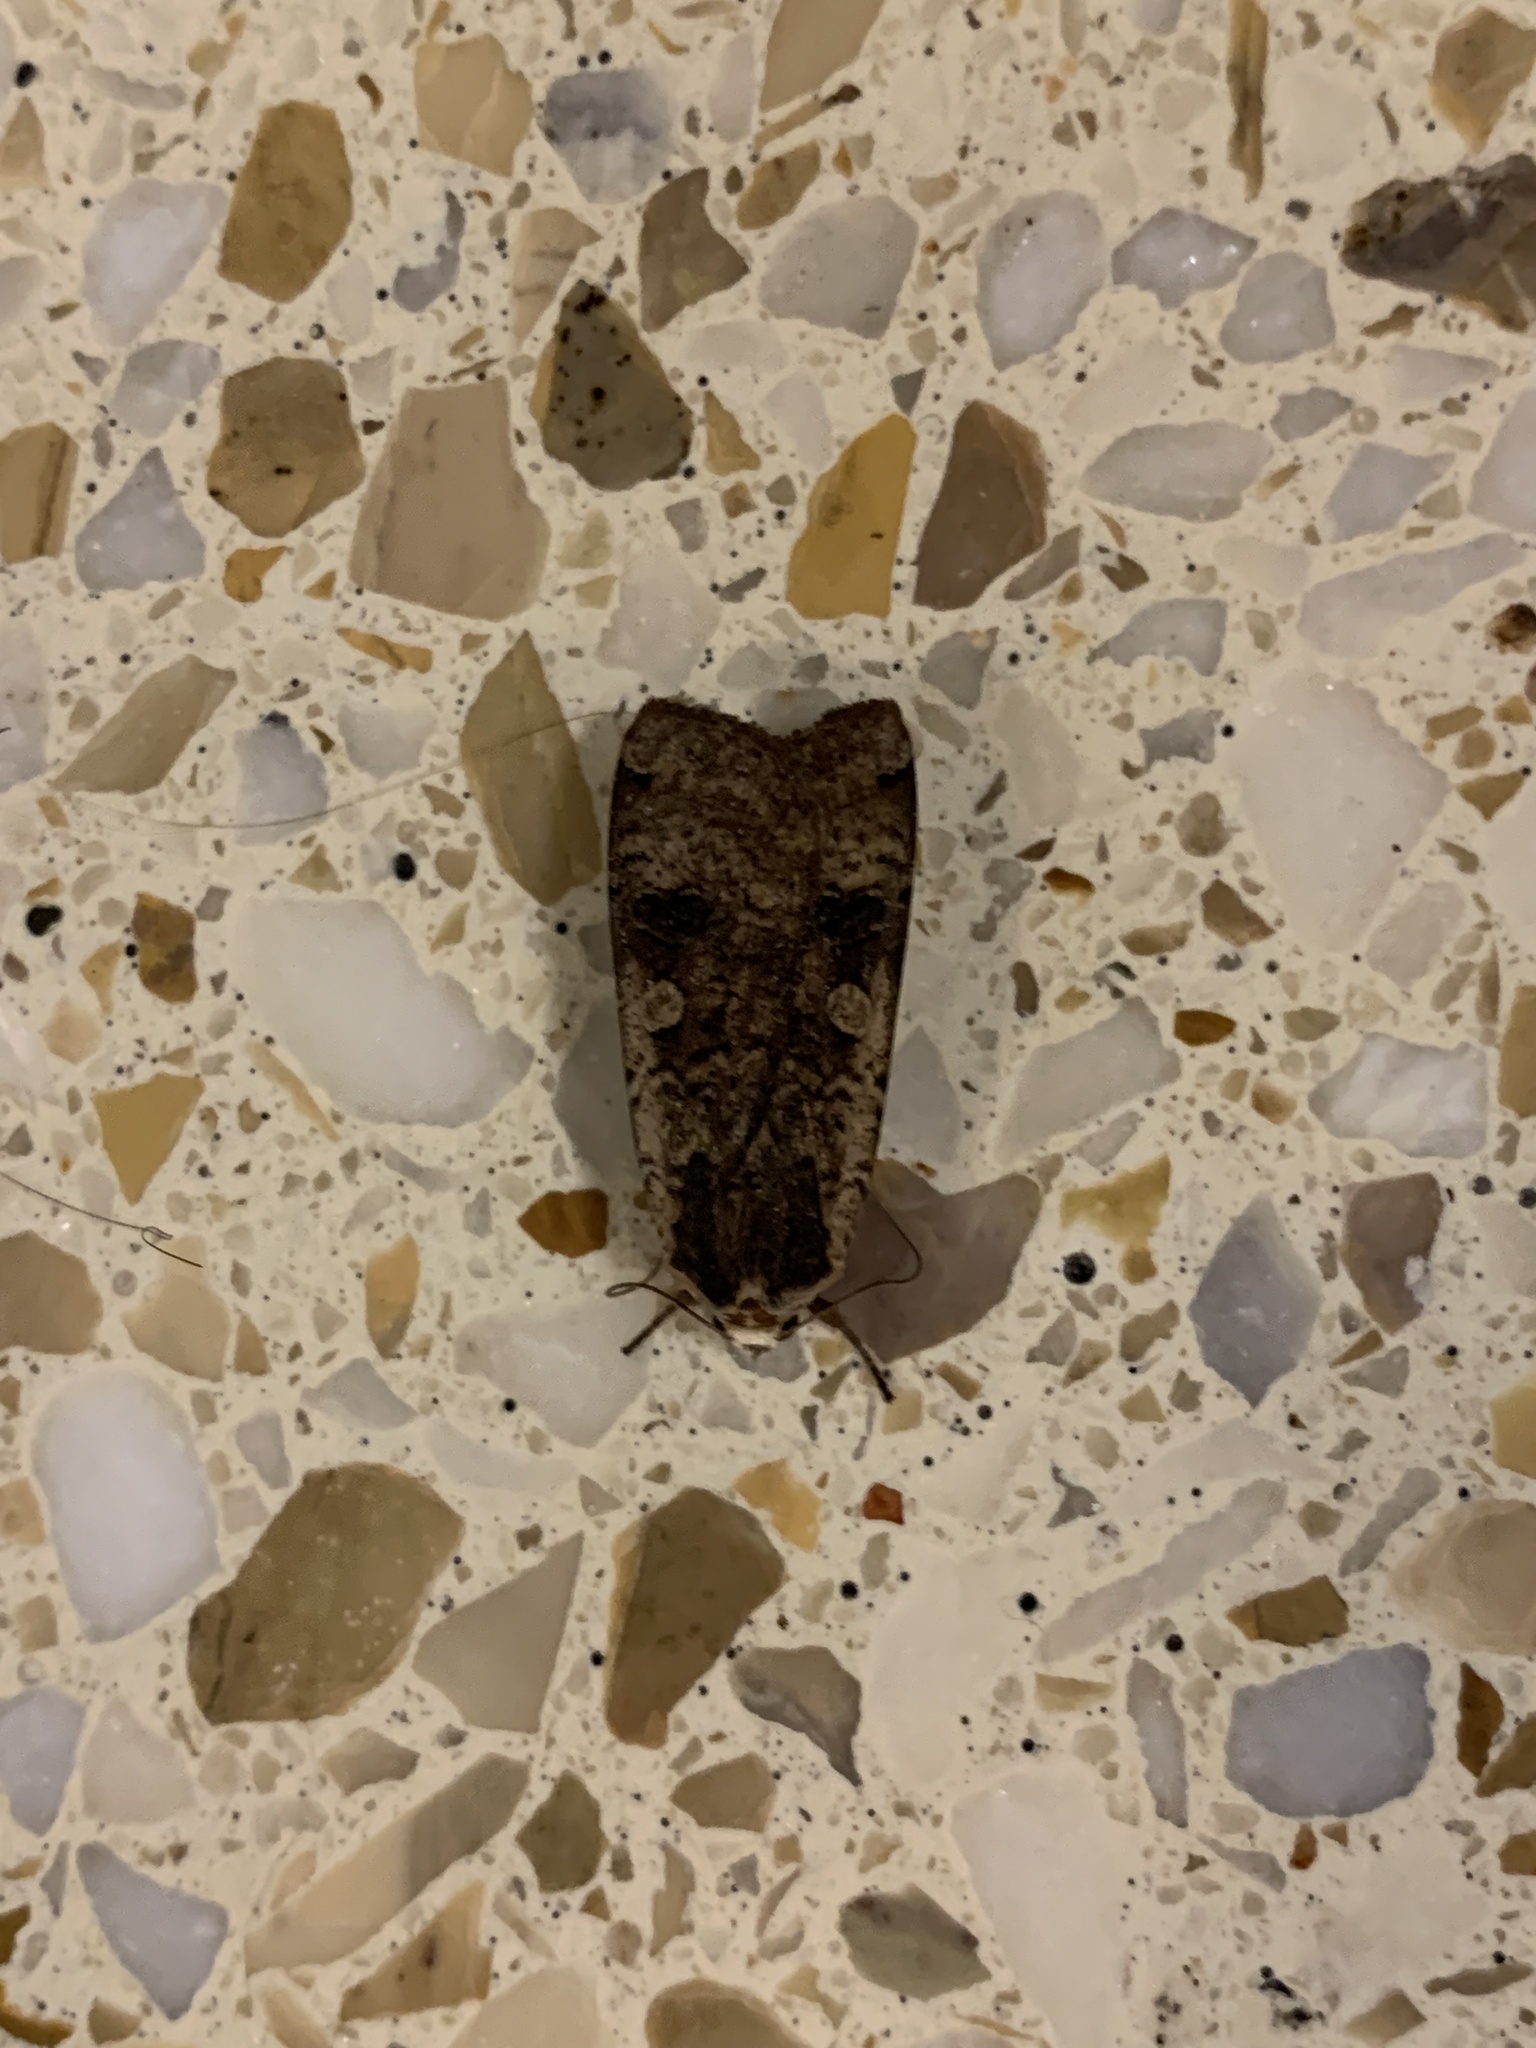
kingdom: Animalia
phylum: Arthropoda
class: Insecta
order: Lepidoptera
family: Noctuidae
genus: Noctua
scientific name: Noctua pronuba
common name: Large yellow underwing
